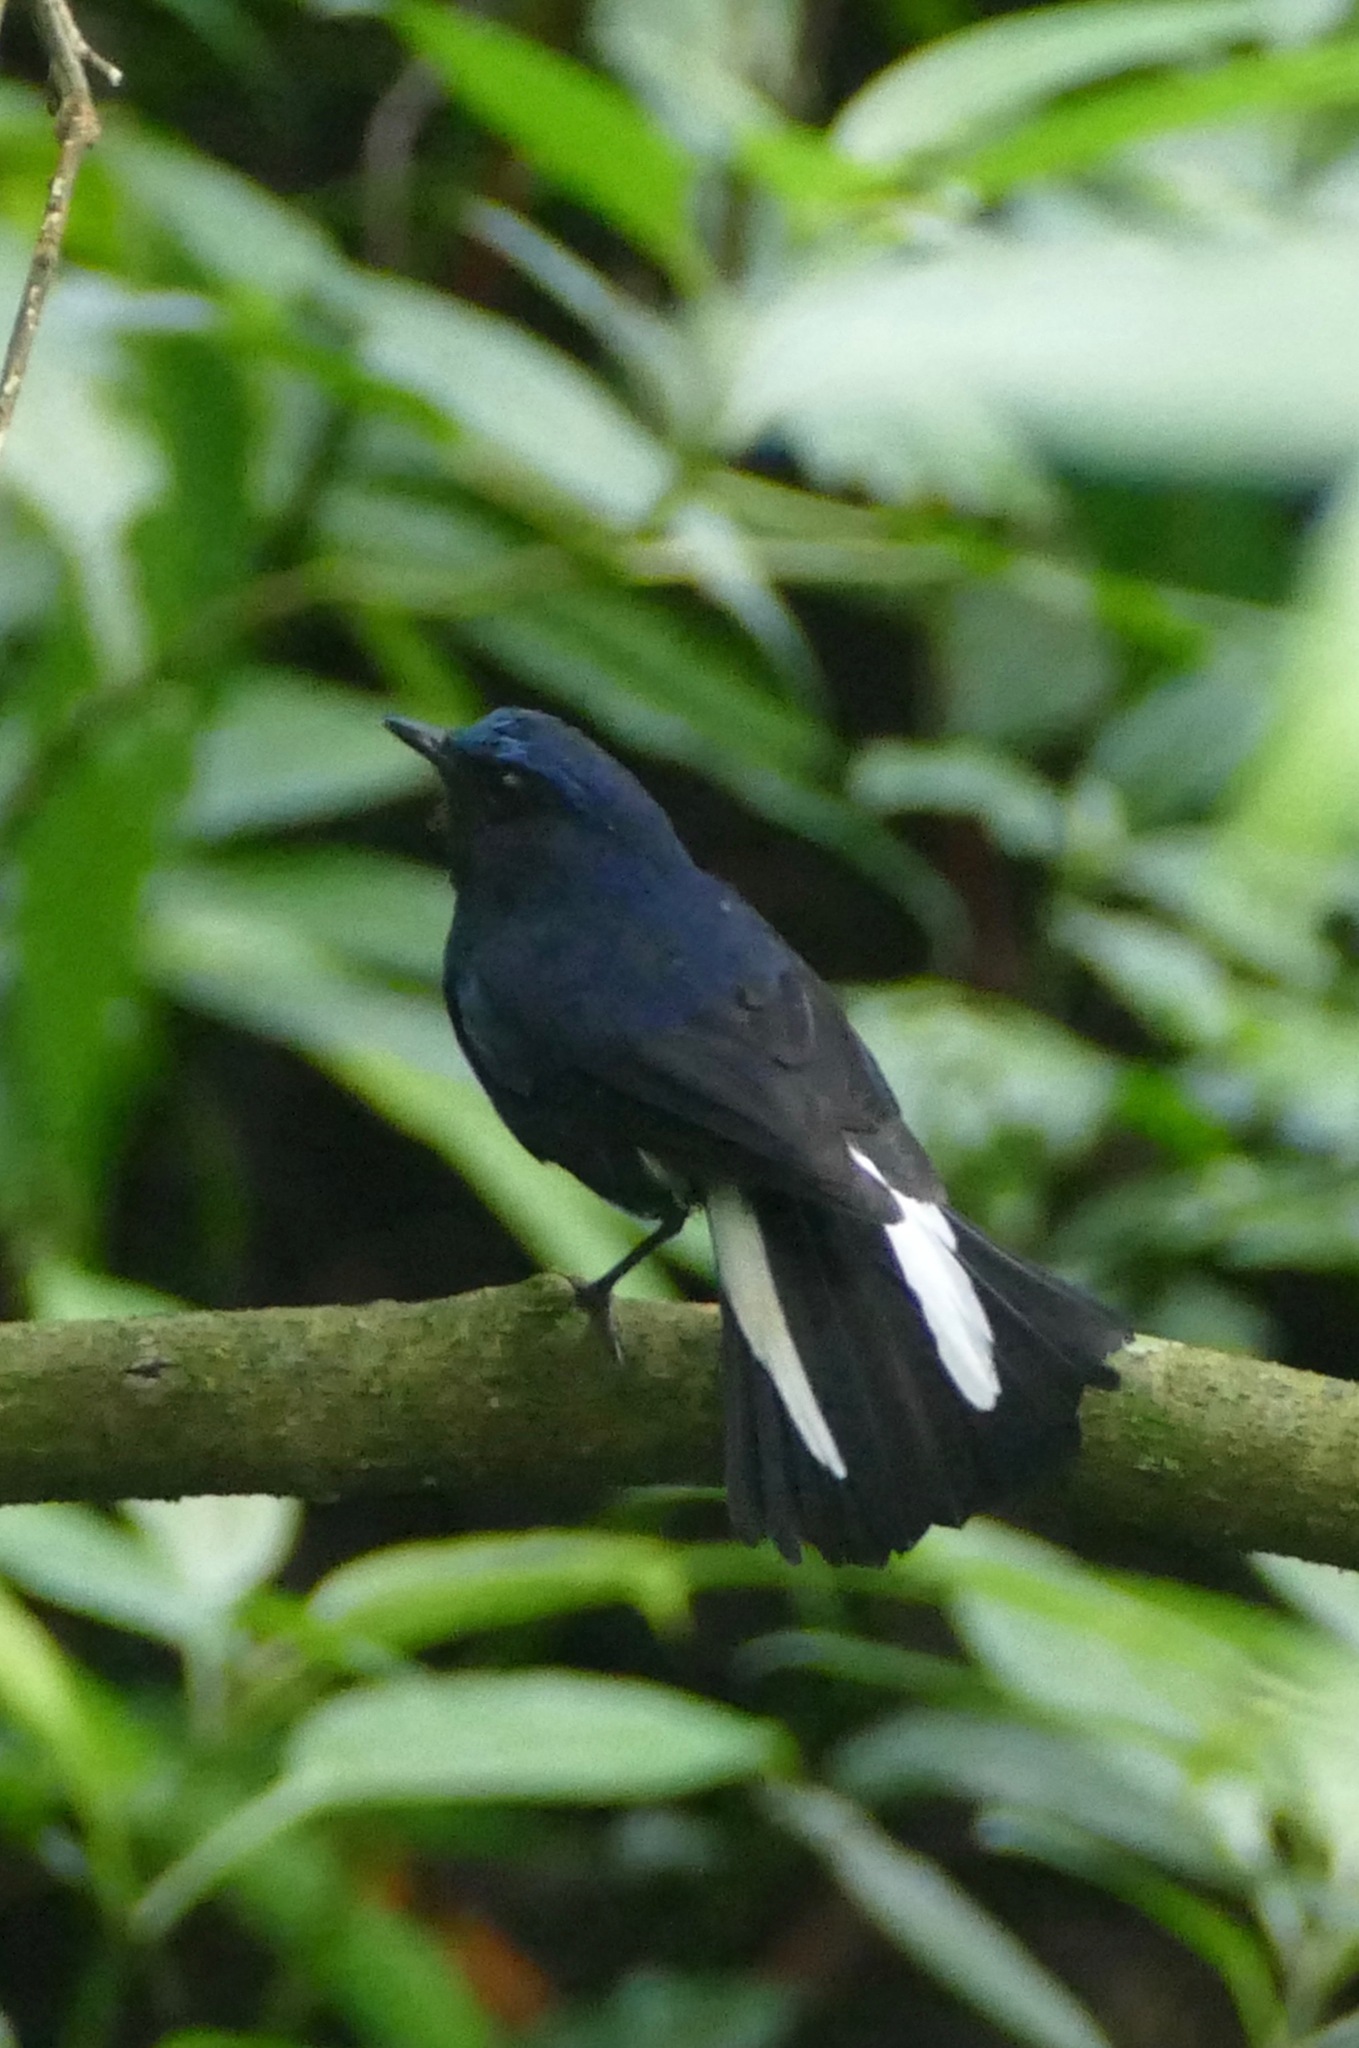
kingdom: Animalia
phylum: Chordata
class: Aves
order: Passeriformes
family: Muscicapidae
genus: Myiomela
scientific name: Myiomela leucura
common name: White-tailed robin
